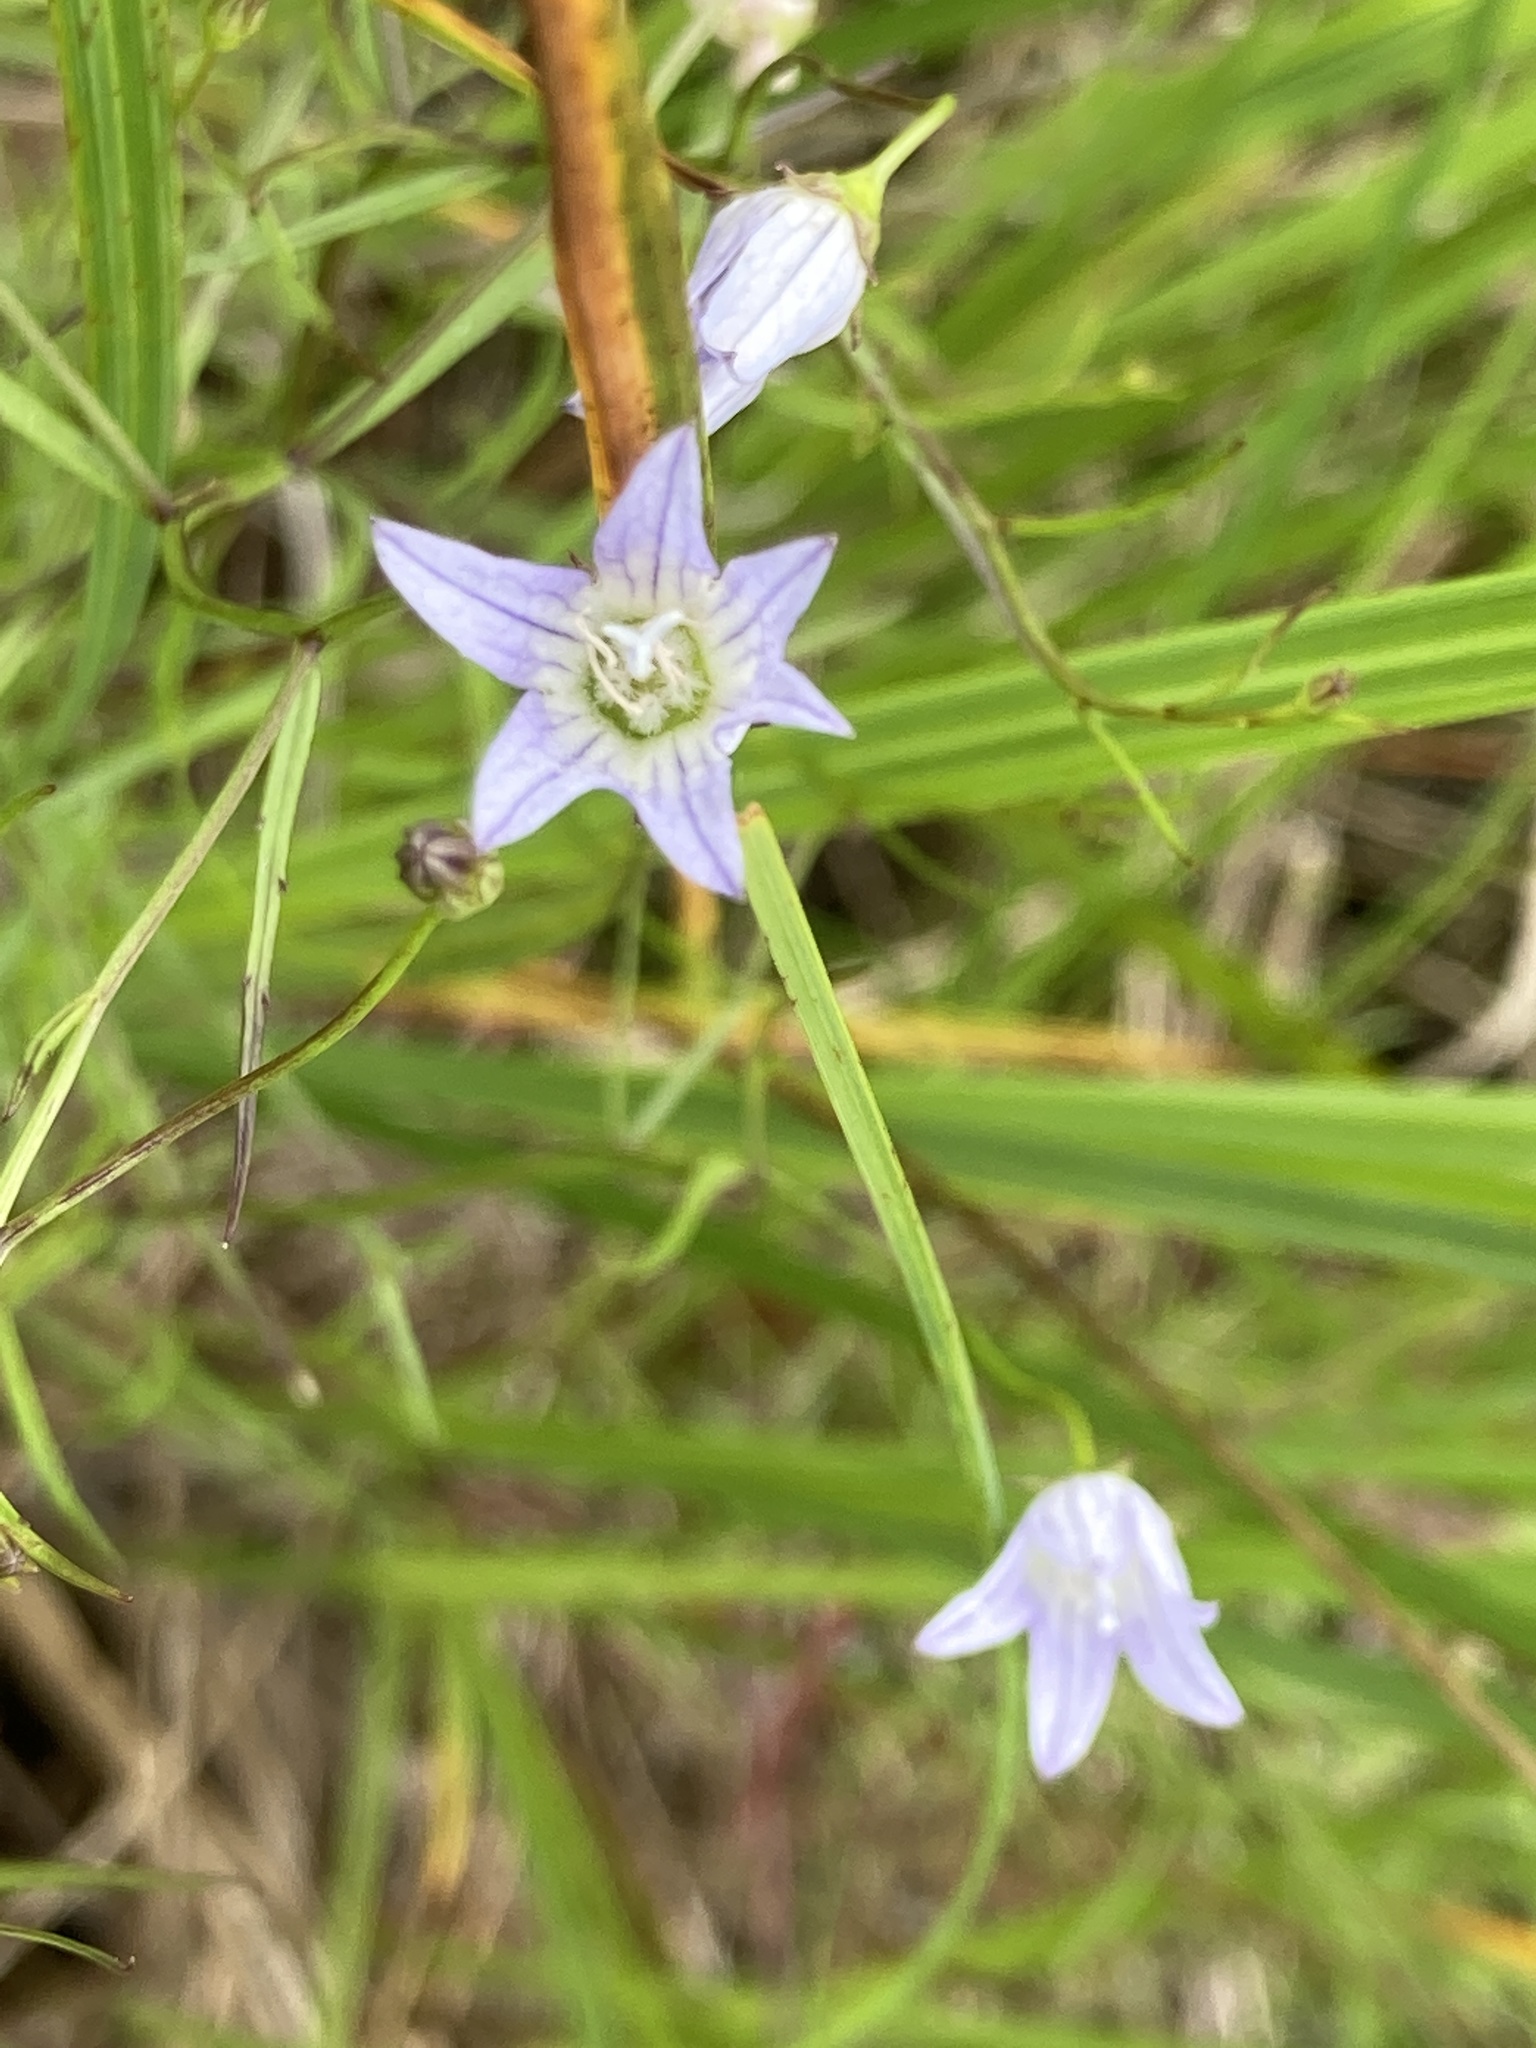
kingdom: Plantae
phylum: Tracheophyta
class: Magnoliopsida
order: Asterales
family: Campanulaceae
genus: Palustricodon
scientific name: Palustricodon aparinoides
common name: Bedstraw bellflower
